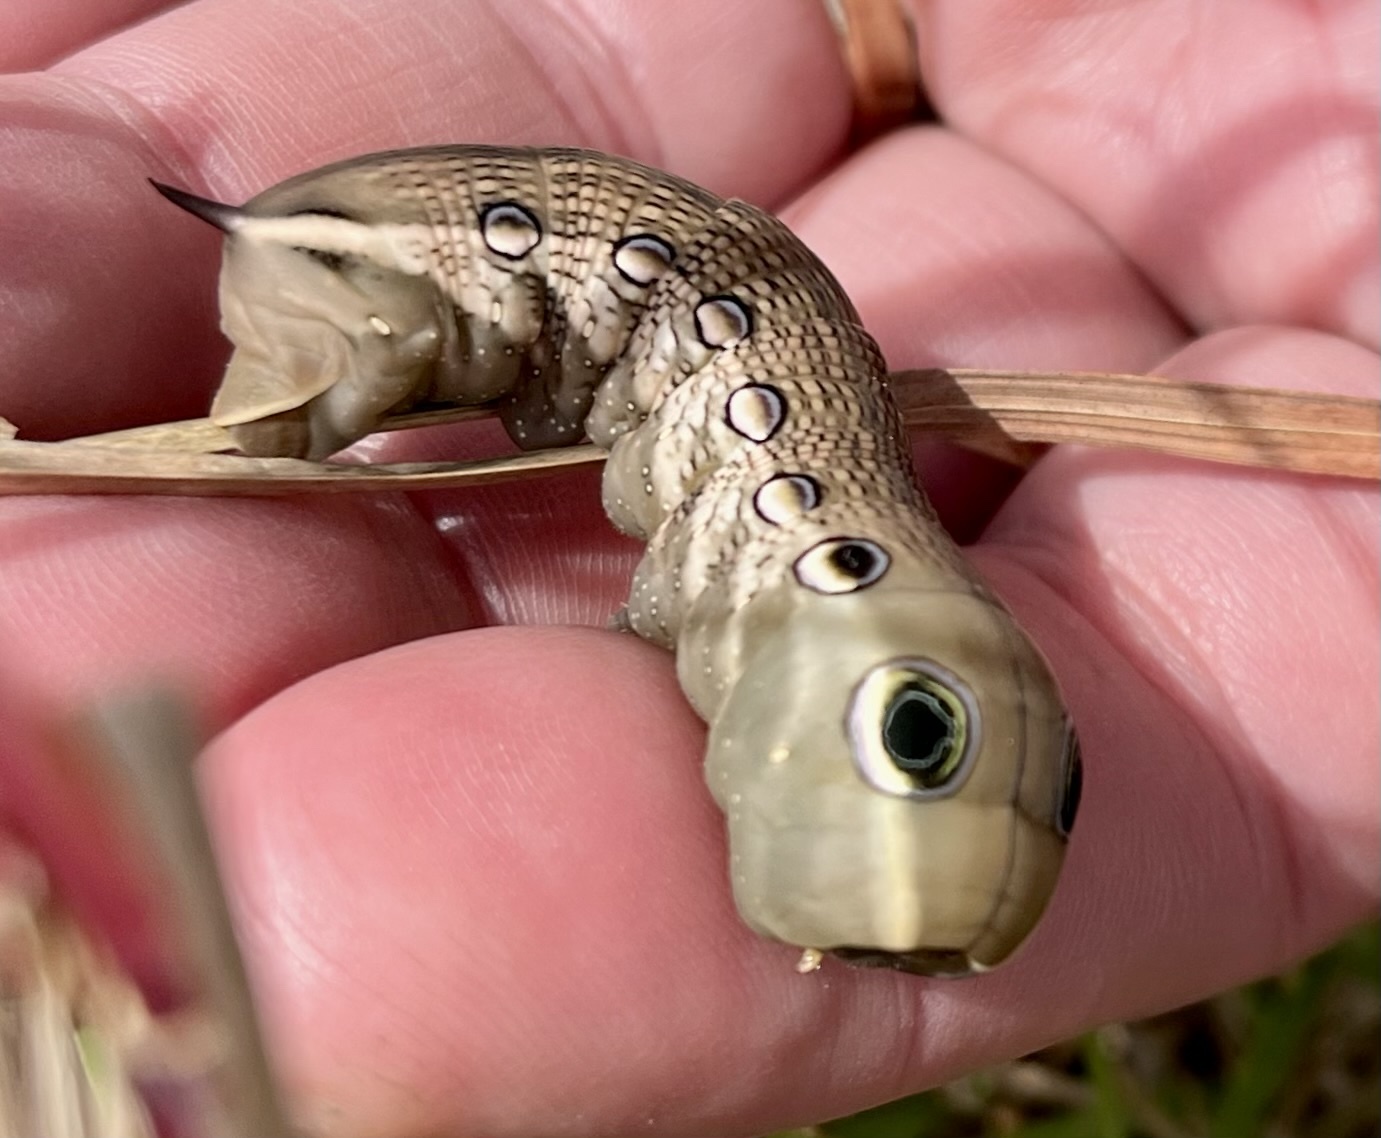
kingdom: Animalia
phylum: Arthropoda
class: Insecta
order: Lepidoptera
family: Sphingidae
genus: Xylophanes
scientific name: Xylophanes tersa
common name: Tersa sphinx
